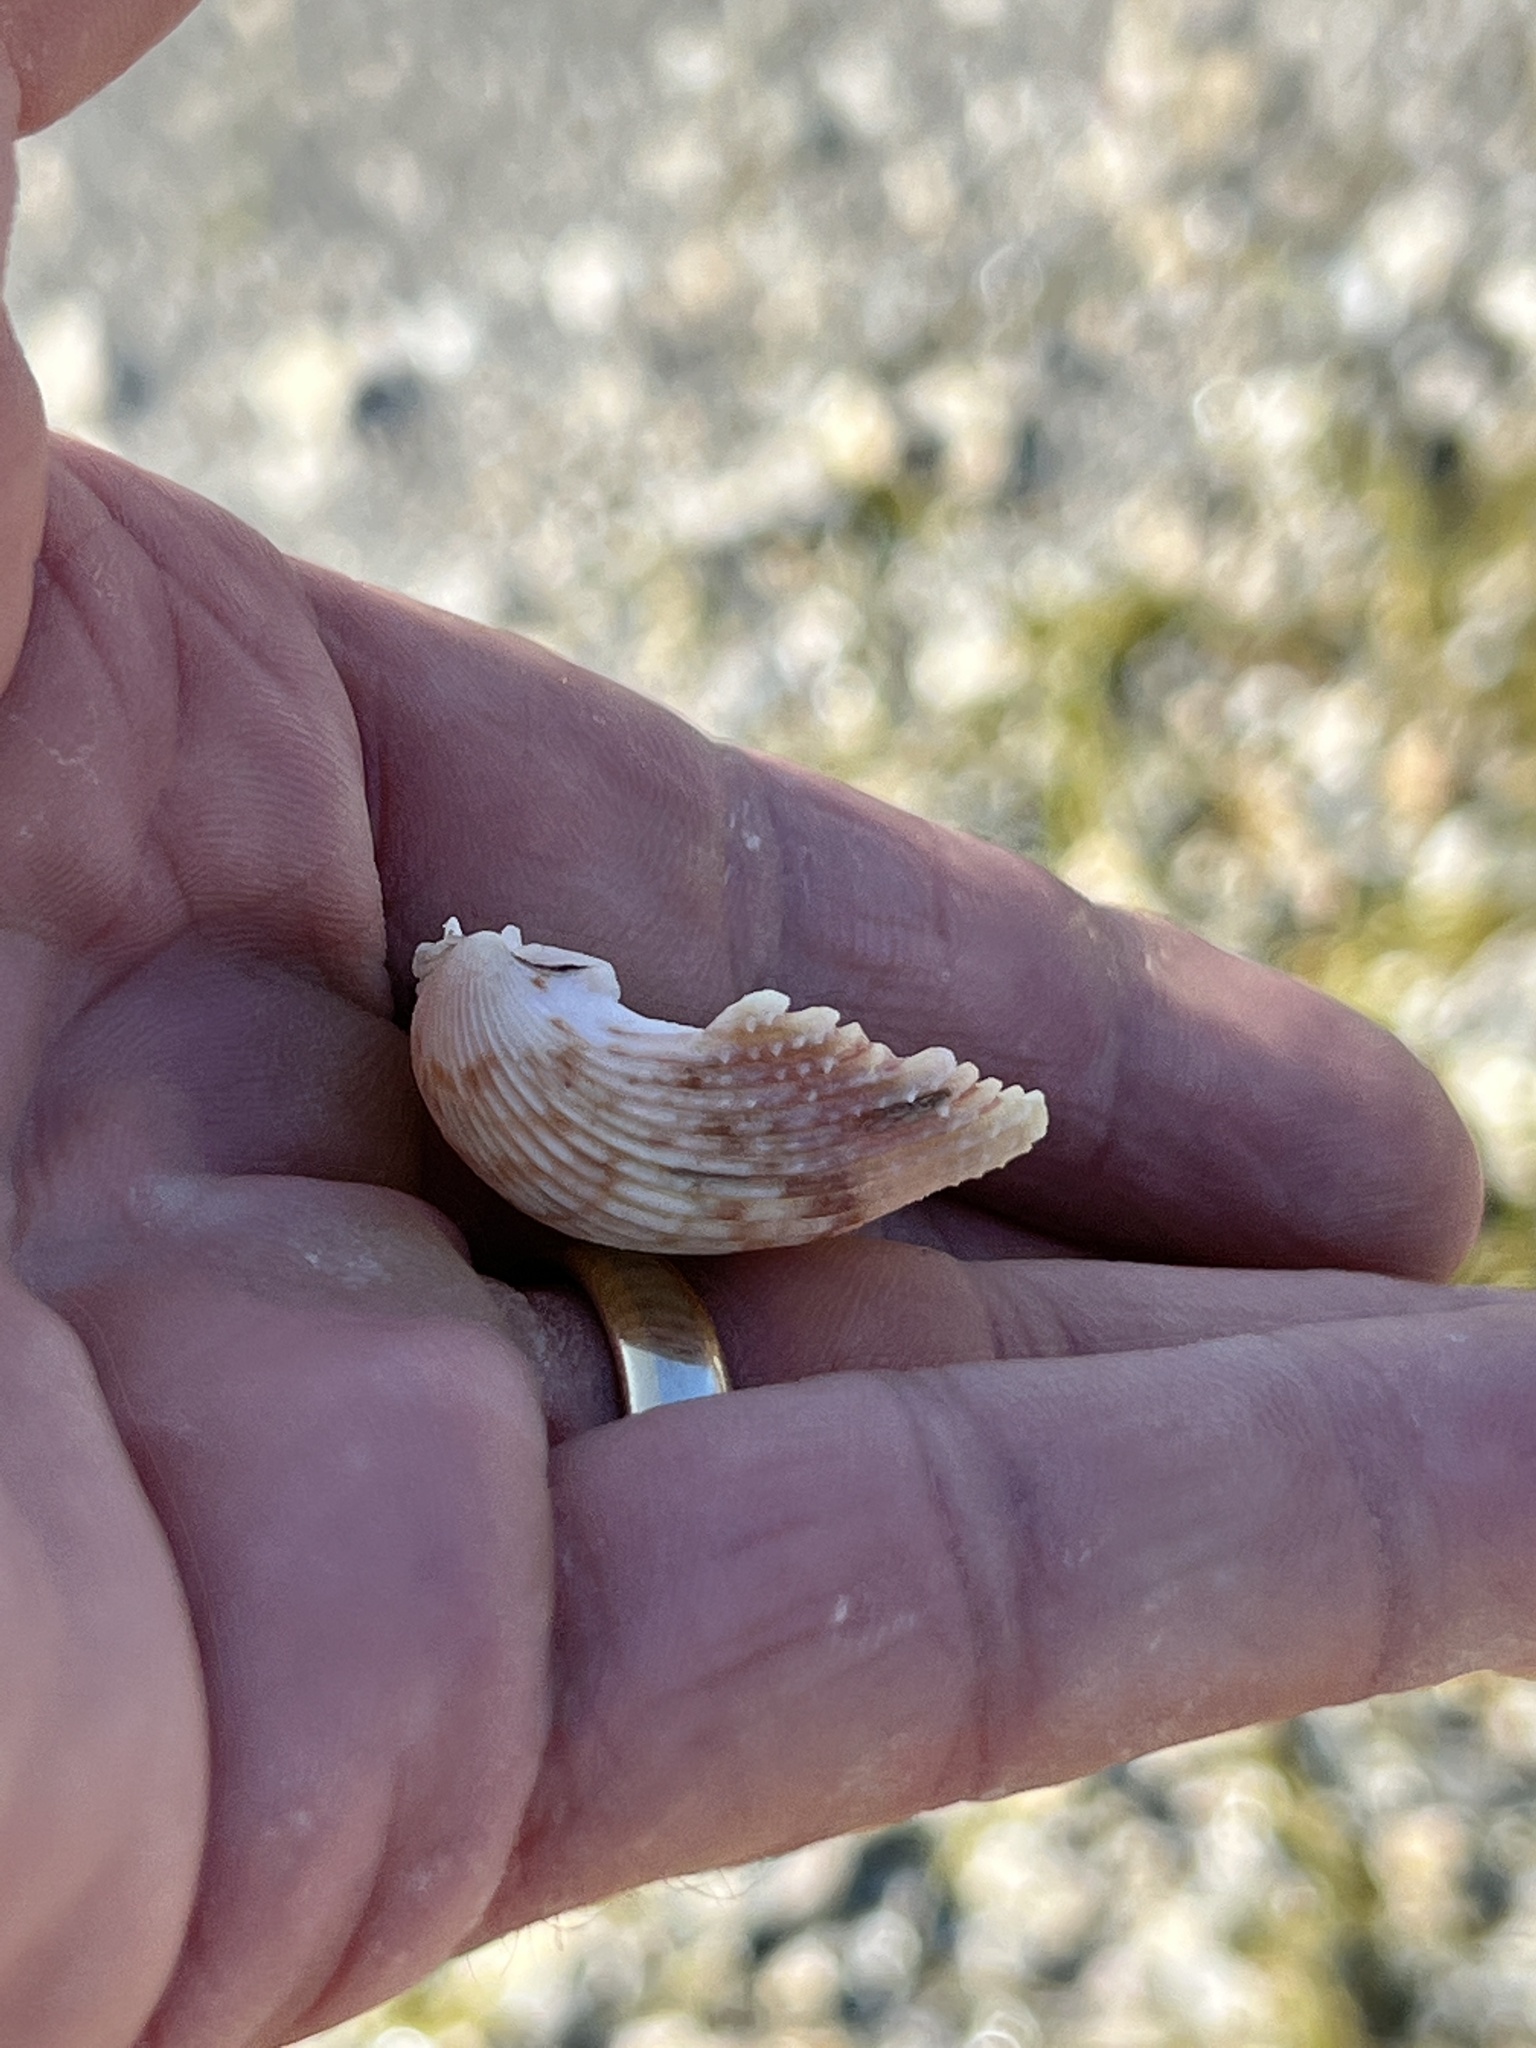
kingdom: Animalia
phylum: Mollusca
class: Bivalvia
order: Cardiida
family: Cardiidae
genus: Trachycardium
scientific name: Trachycardium egmontianum
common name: Florida pricklycockle
